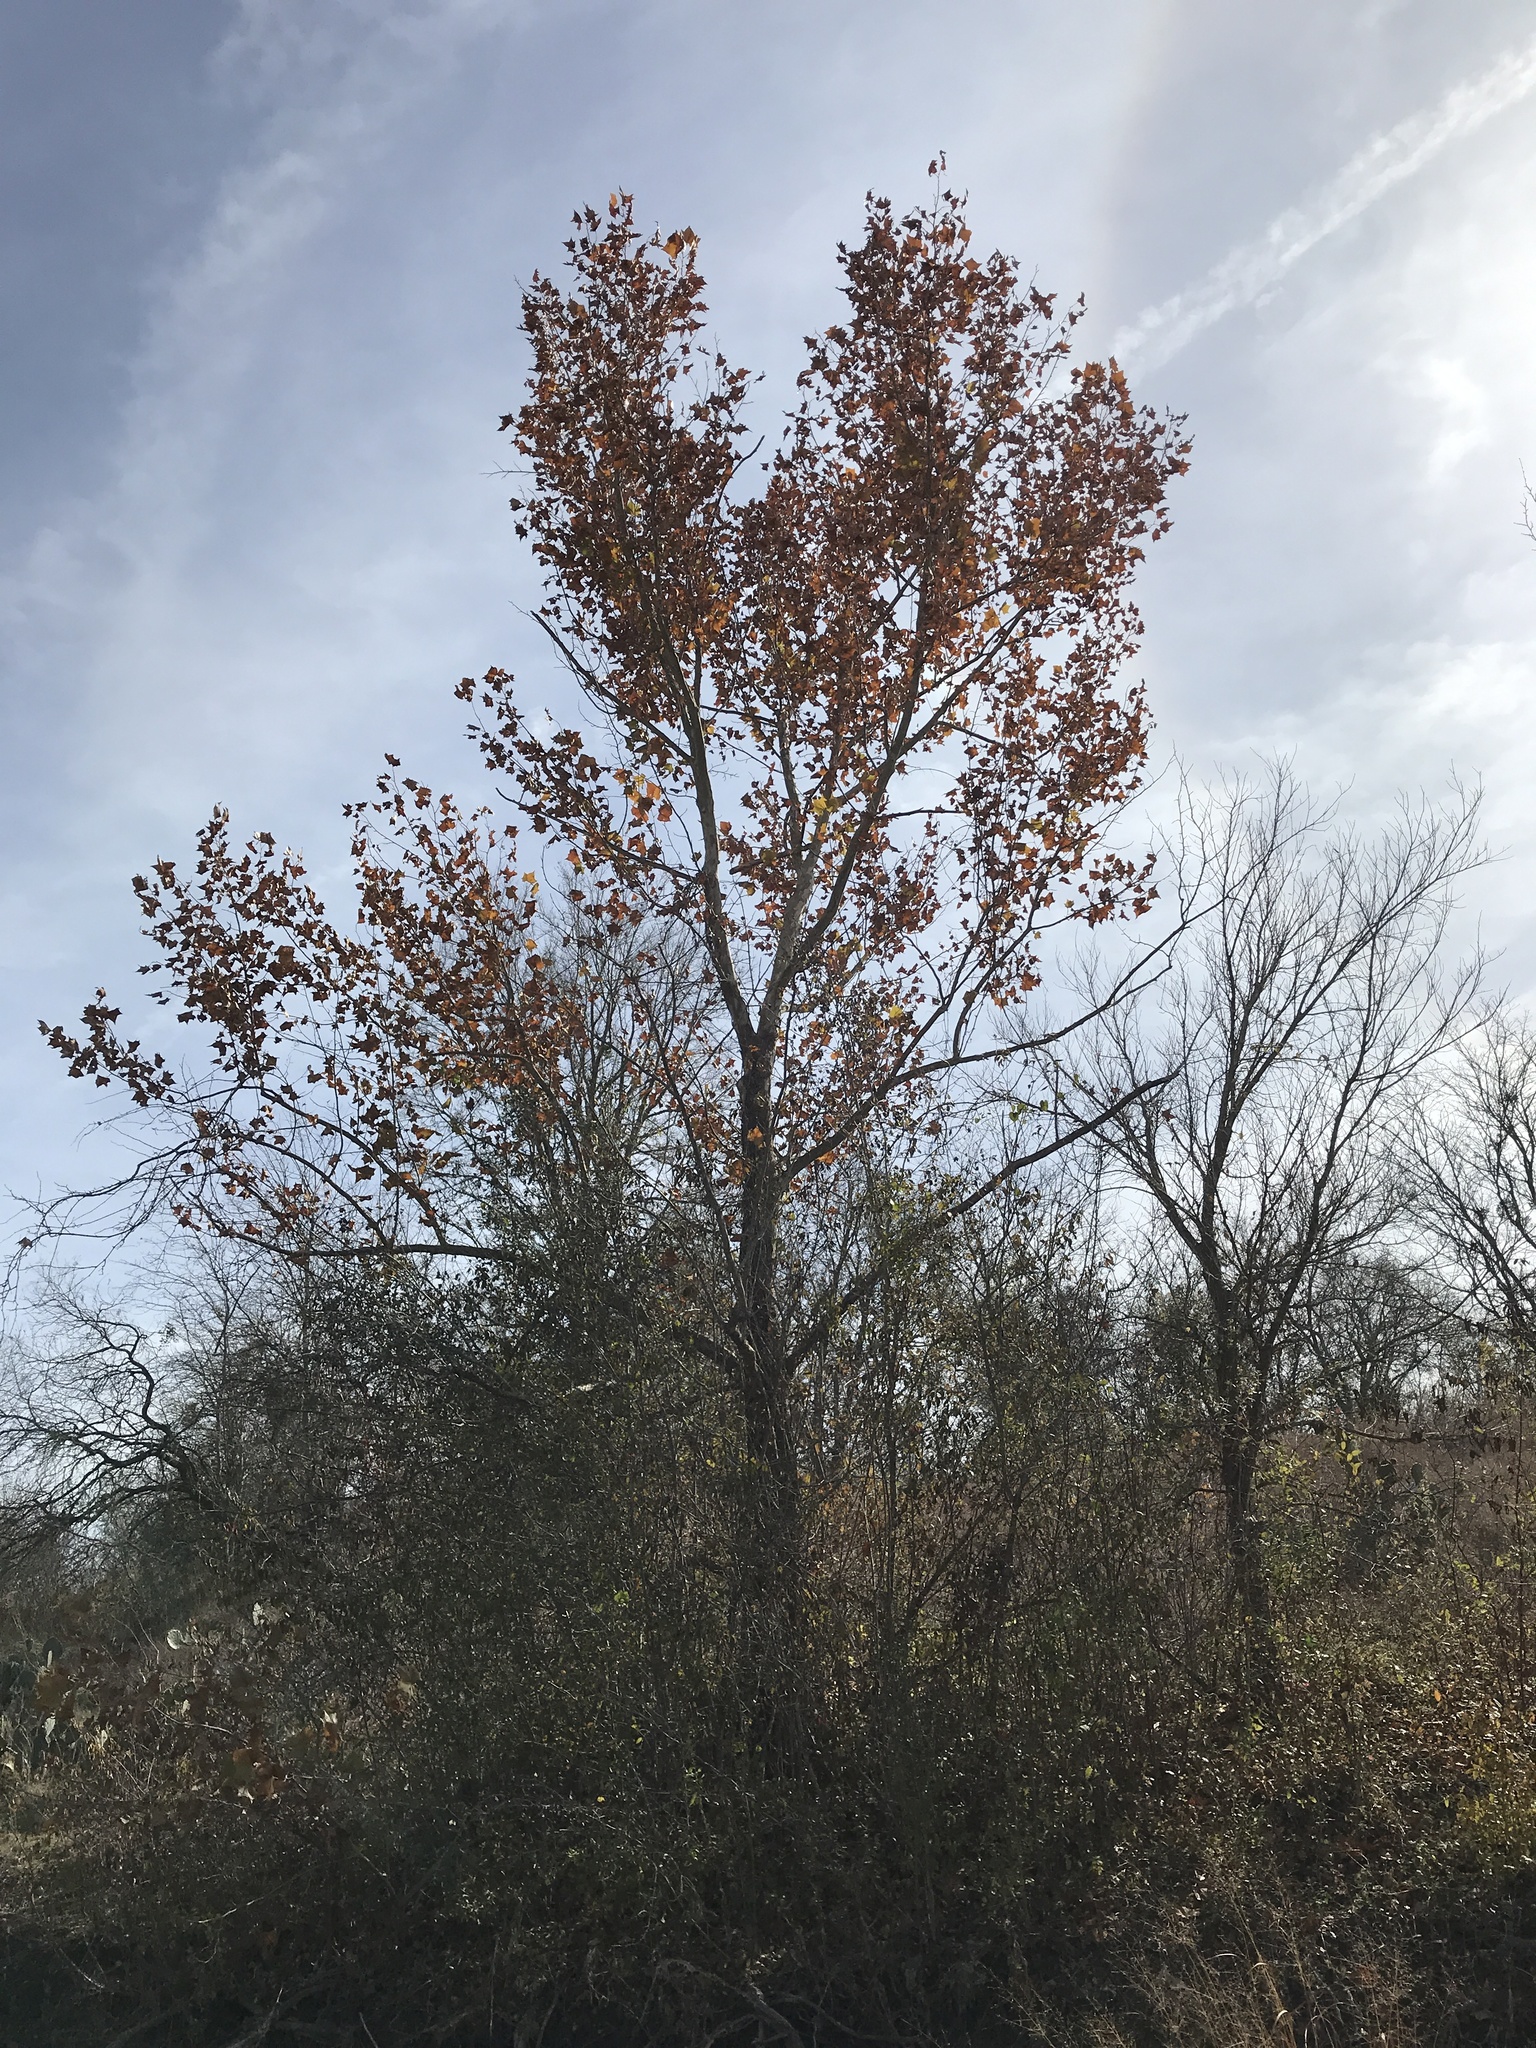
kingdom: Plantae
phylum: Tracheophyta
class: Magnoliopsida
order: Proteales
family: Platanaceae
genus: Platanus
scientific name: Platanus occidentalis
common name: American sycamore
